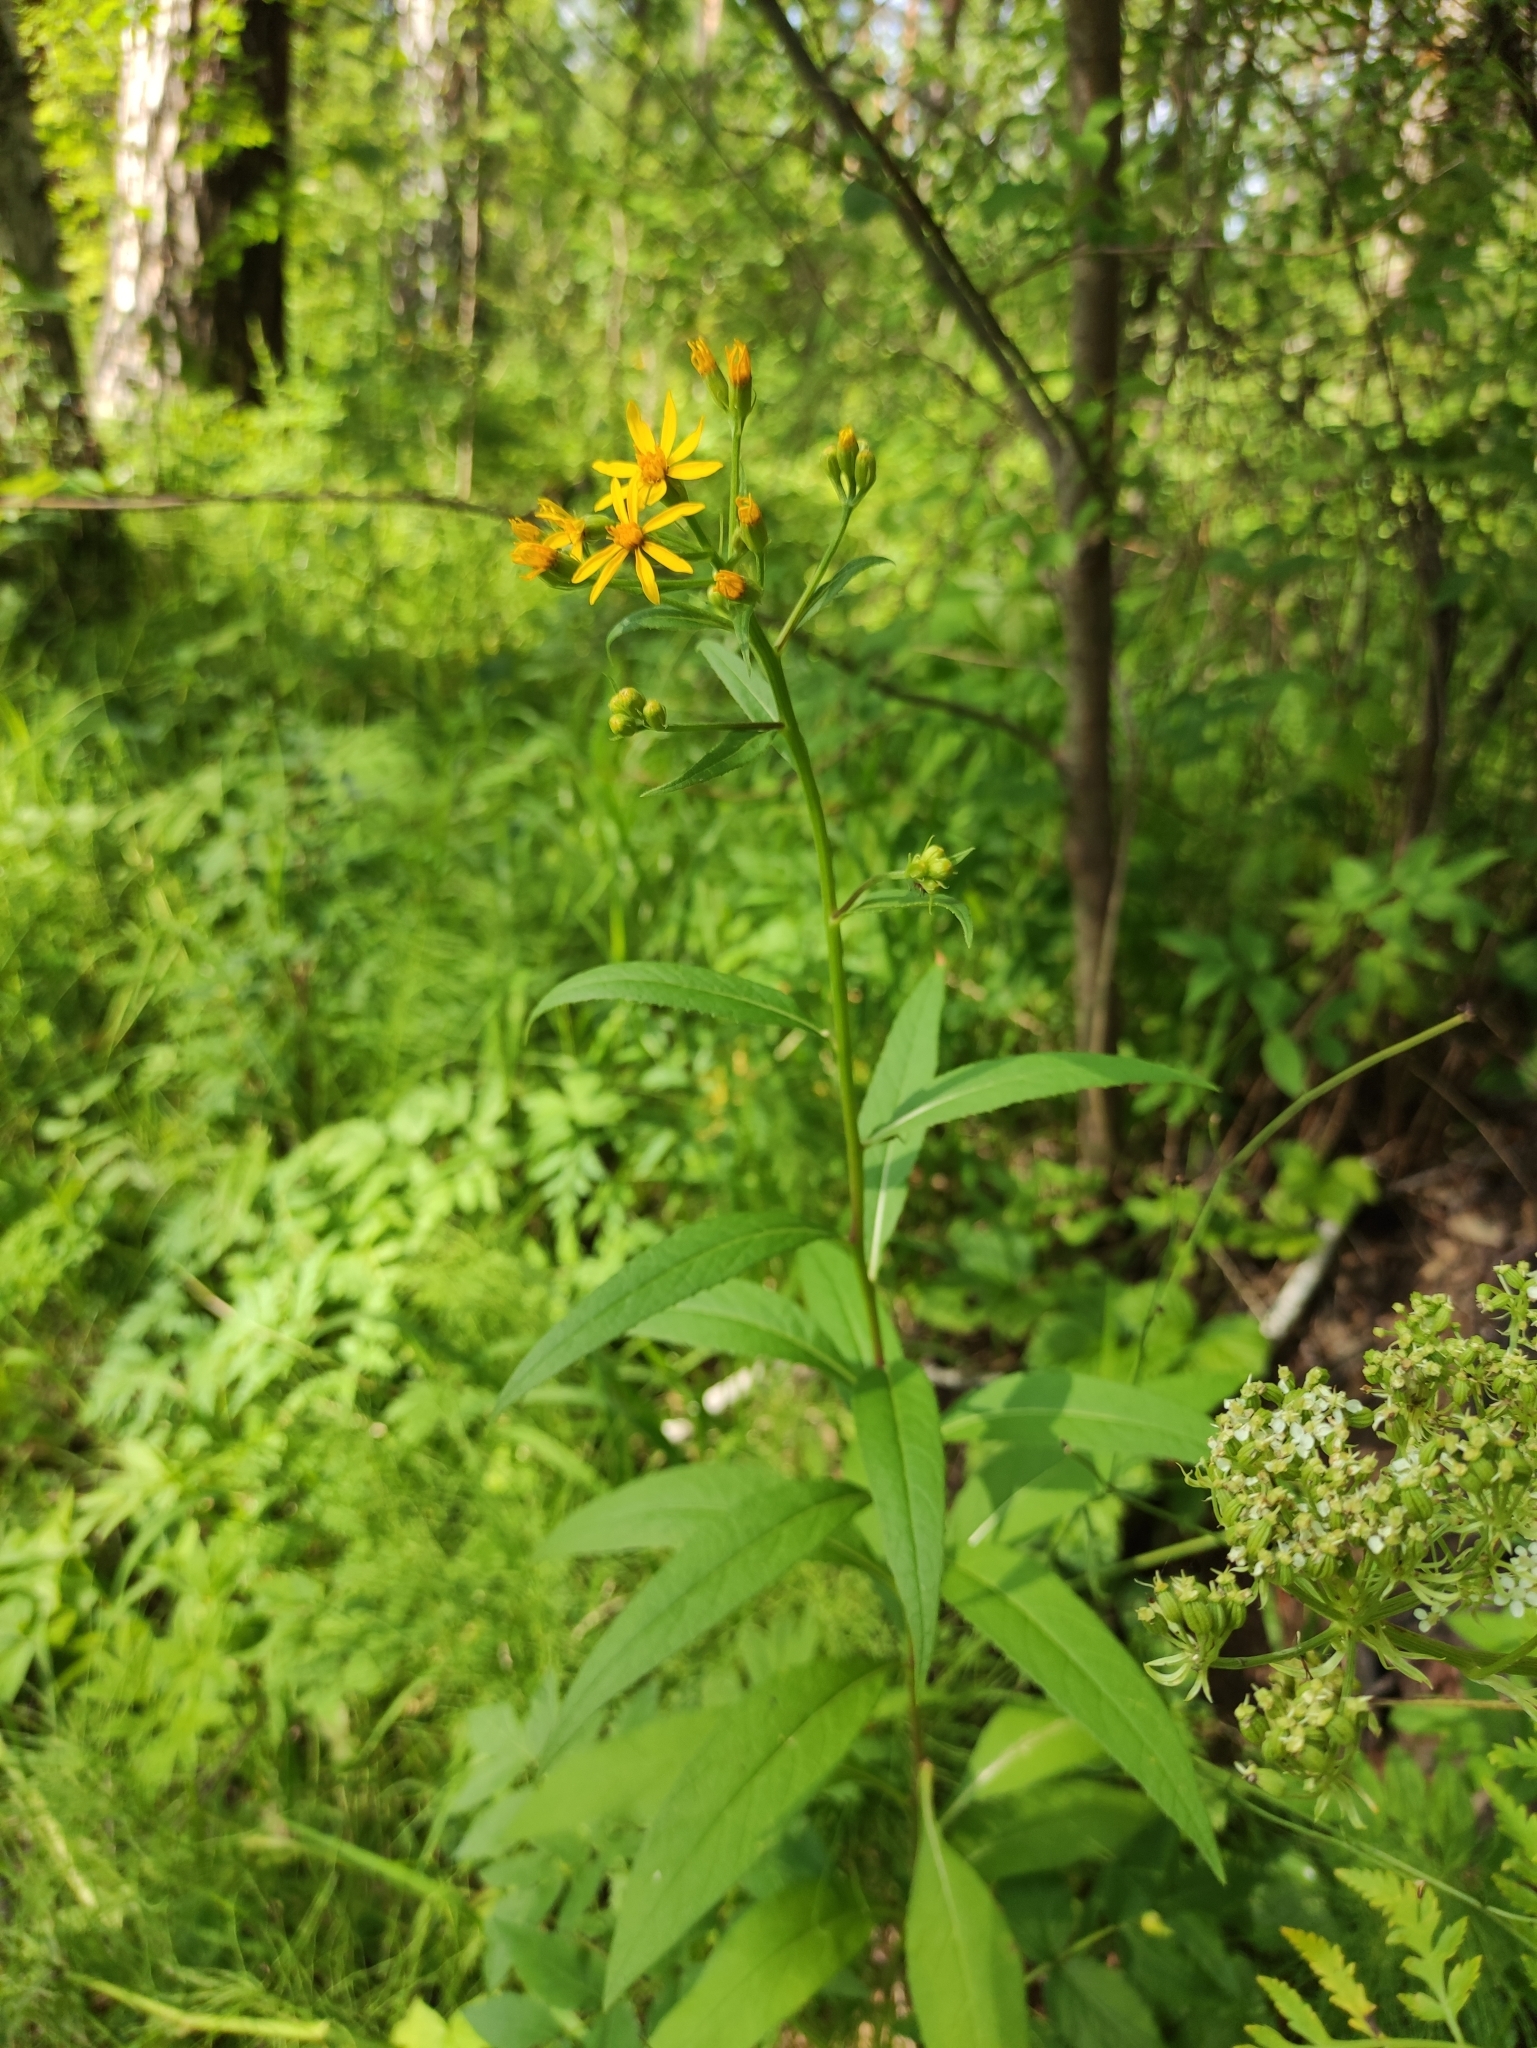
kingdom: Plantae
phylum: Tracheophyta
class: Magnoliopsida
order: Asterales
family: Asteraceae
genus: Senecio
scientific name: Senecio nemorensis
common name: Alpine ragwort
